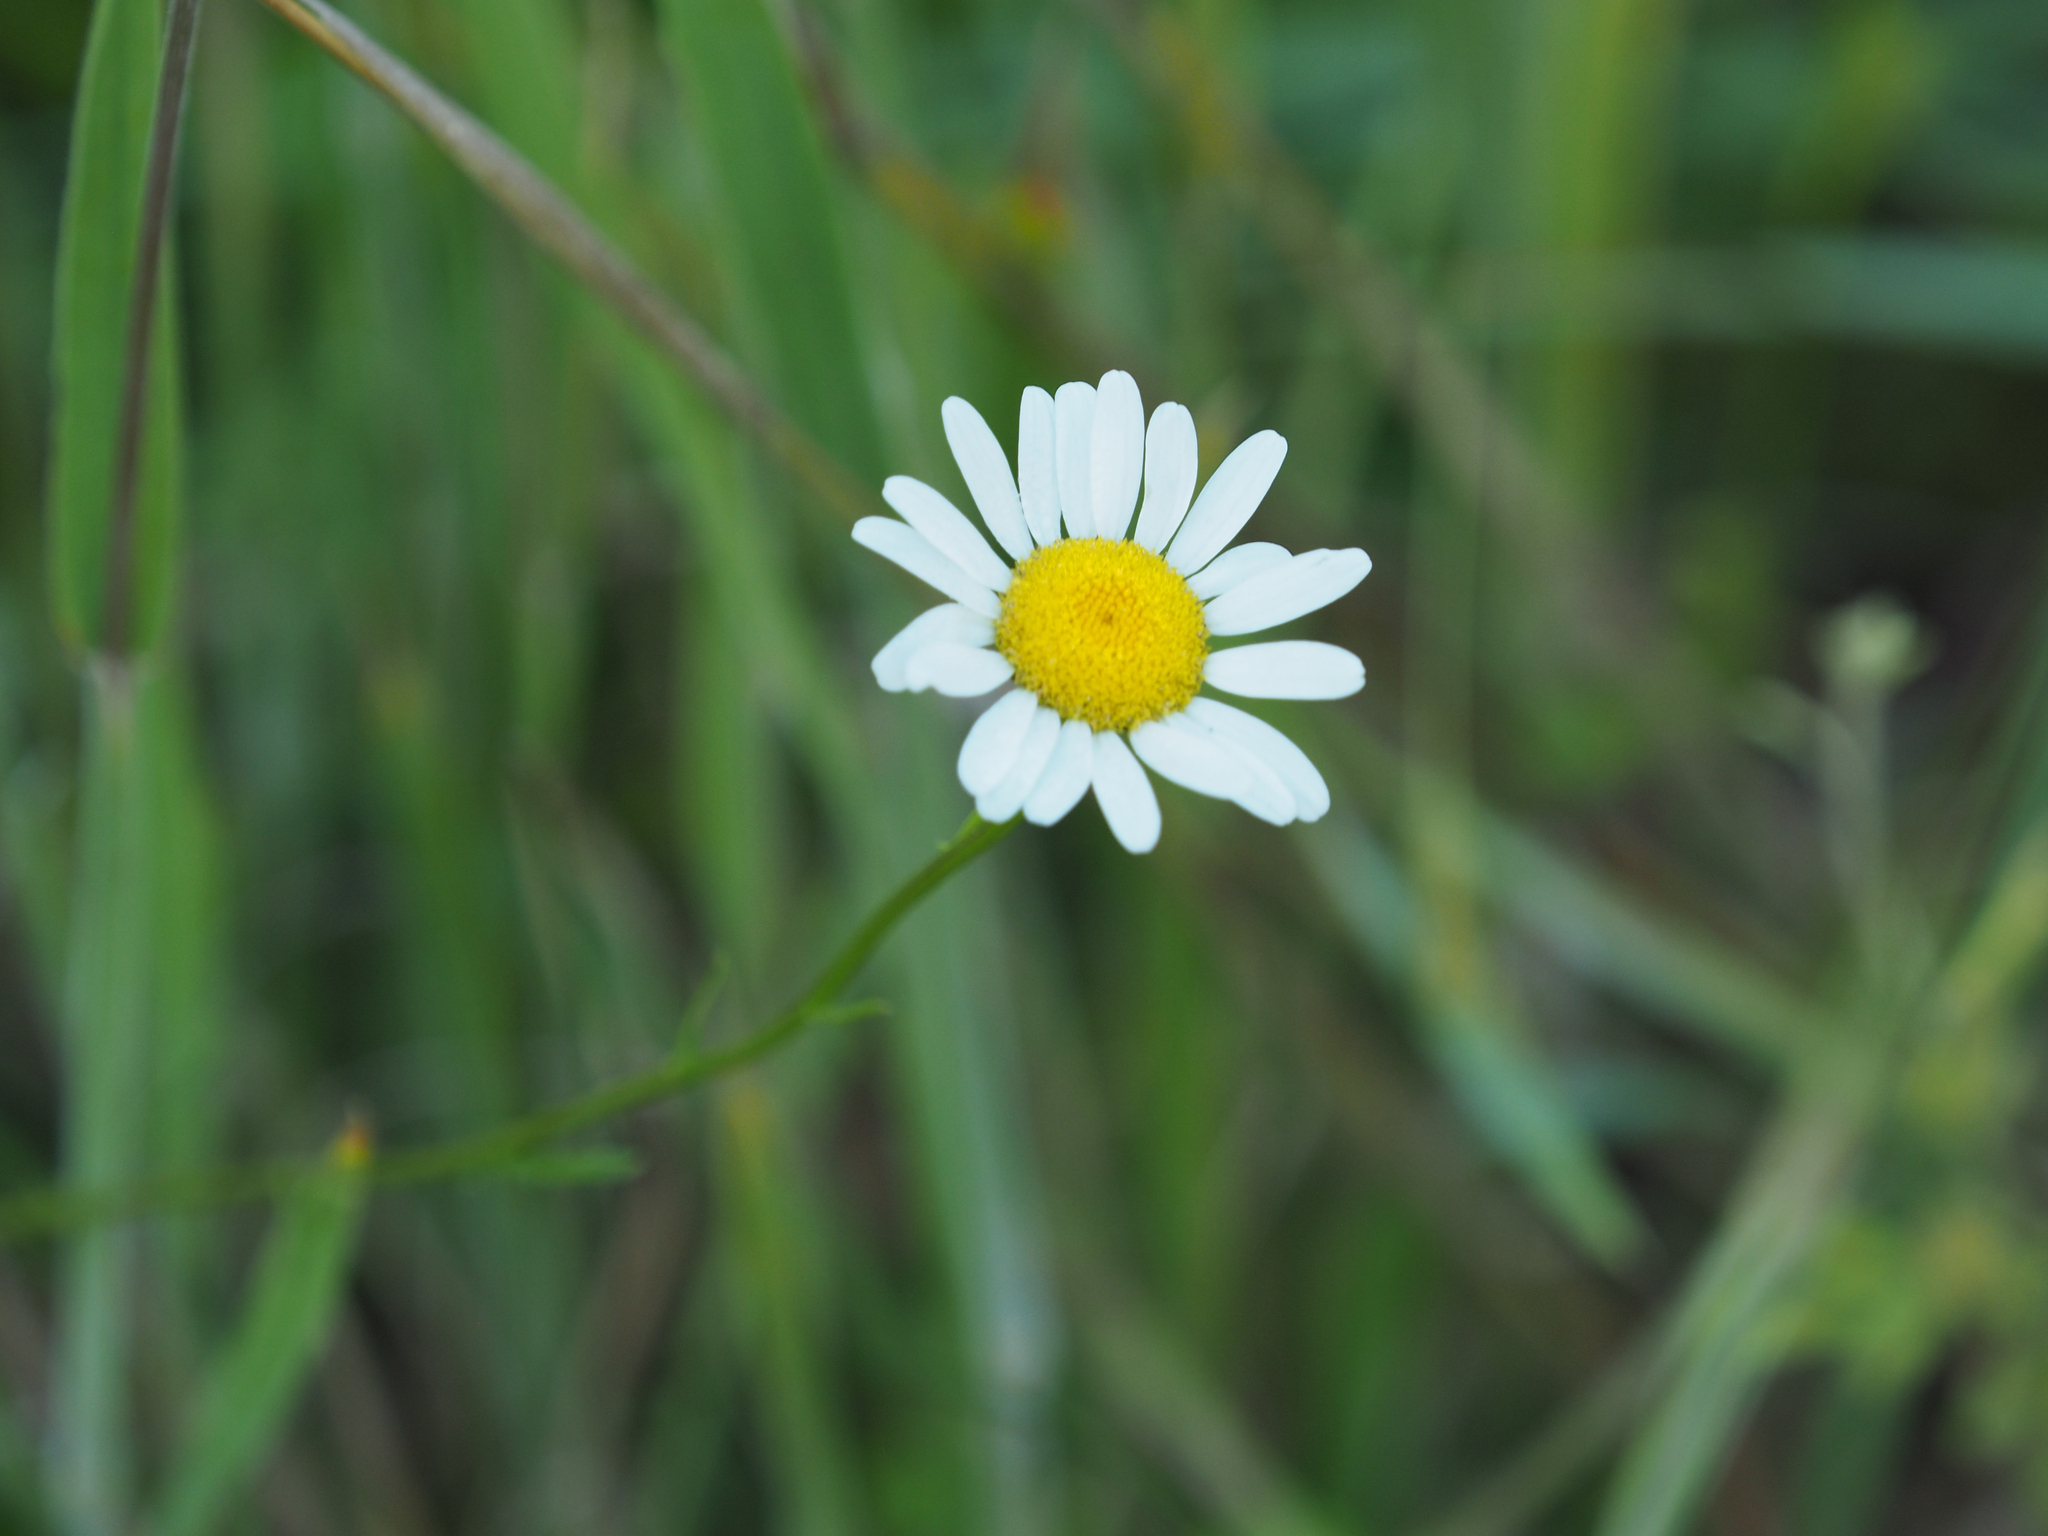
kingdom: Plantae
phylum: Tracheophyta
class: Magnoliopsida
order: Asterales
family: Asteraceae
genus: Leucanthemum
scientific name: Leucanthemum vulgare
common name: Oxeye daisy
